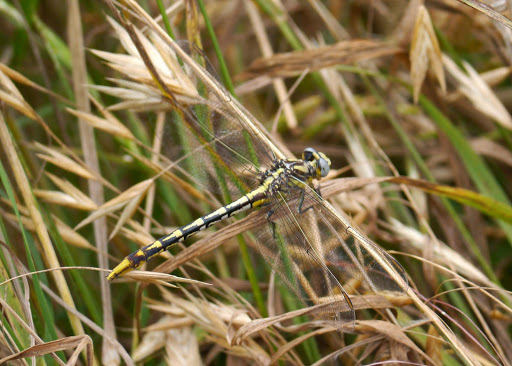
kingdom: Animalia
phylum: Arthropoda
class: Insecta
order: Odonata
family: Gomphidae
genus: Phanogomphus
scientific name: Phanogomphus militaris
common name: Sulphur-tipped clubtail
